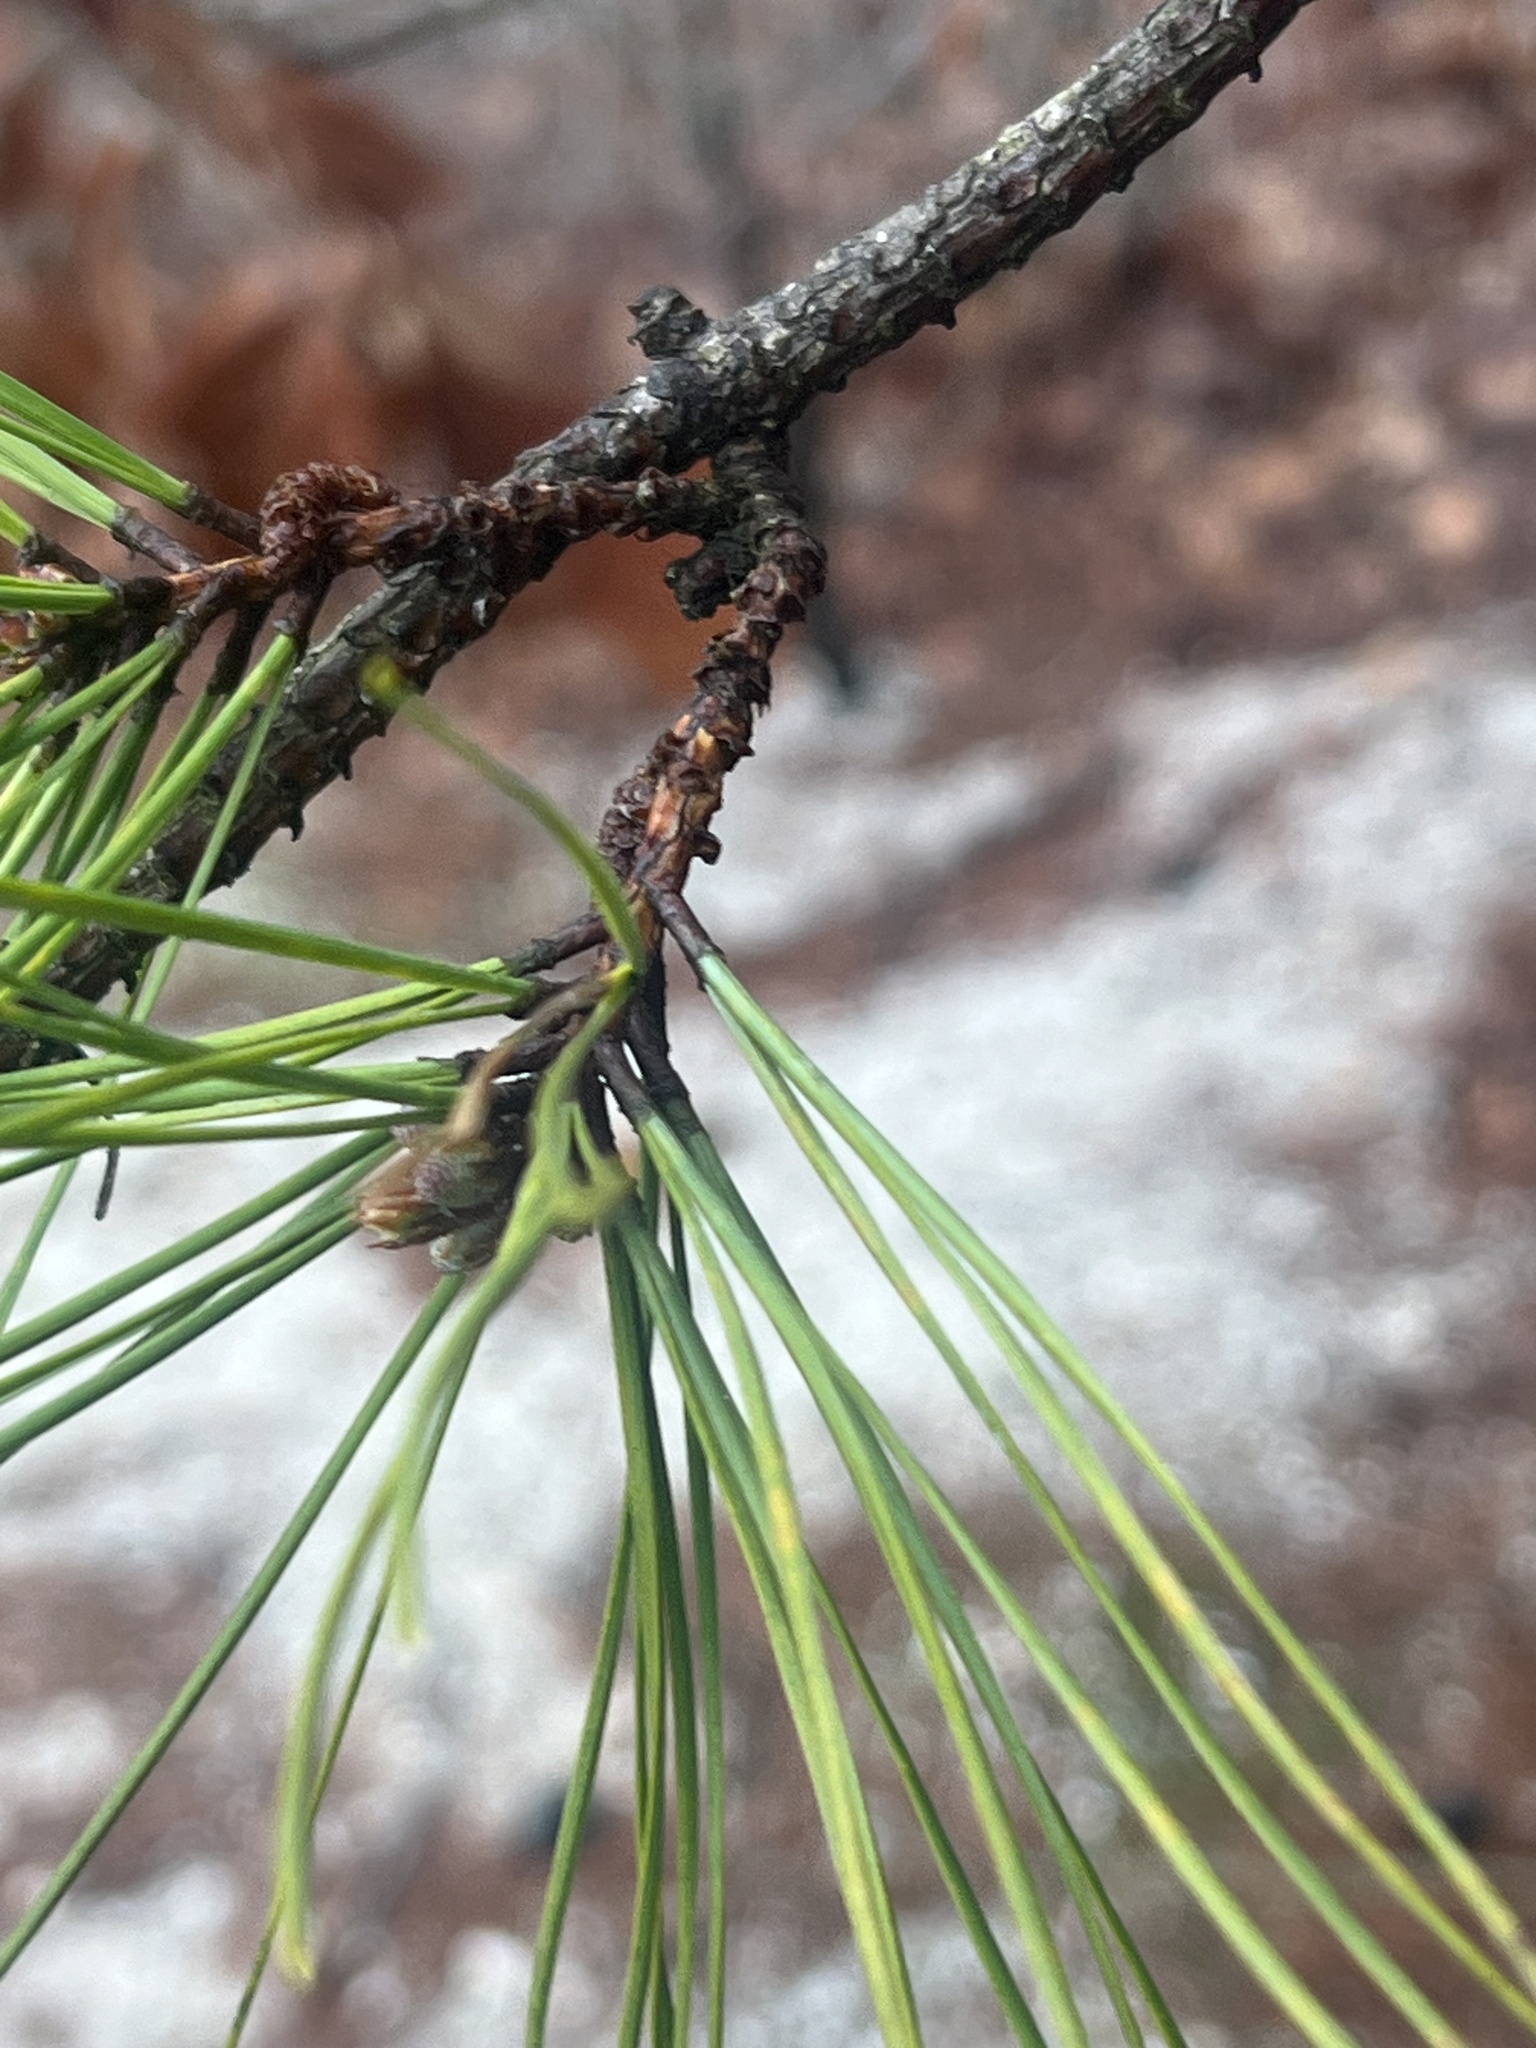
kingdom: Plantae
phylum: Tracheophyta
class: Pinopsida
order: Pinales
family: Pinaceae
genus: Pinus
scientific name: Pinus rigida
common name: Pitch pine
